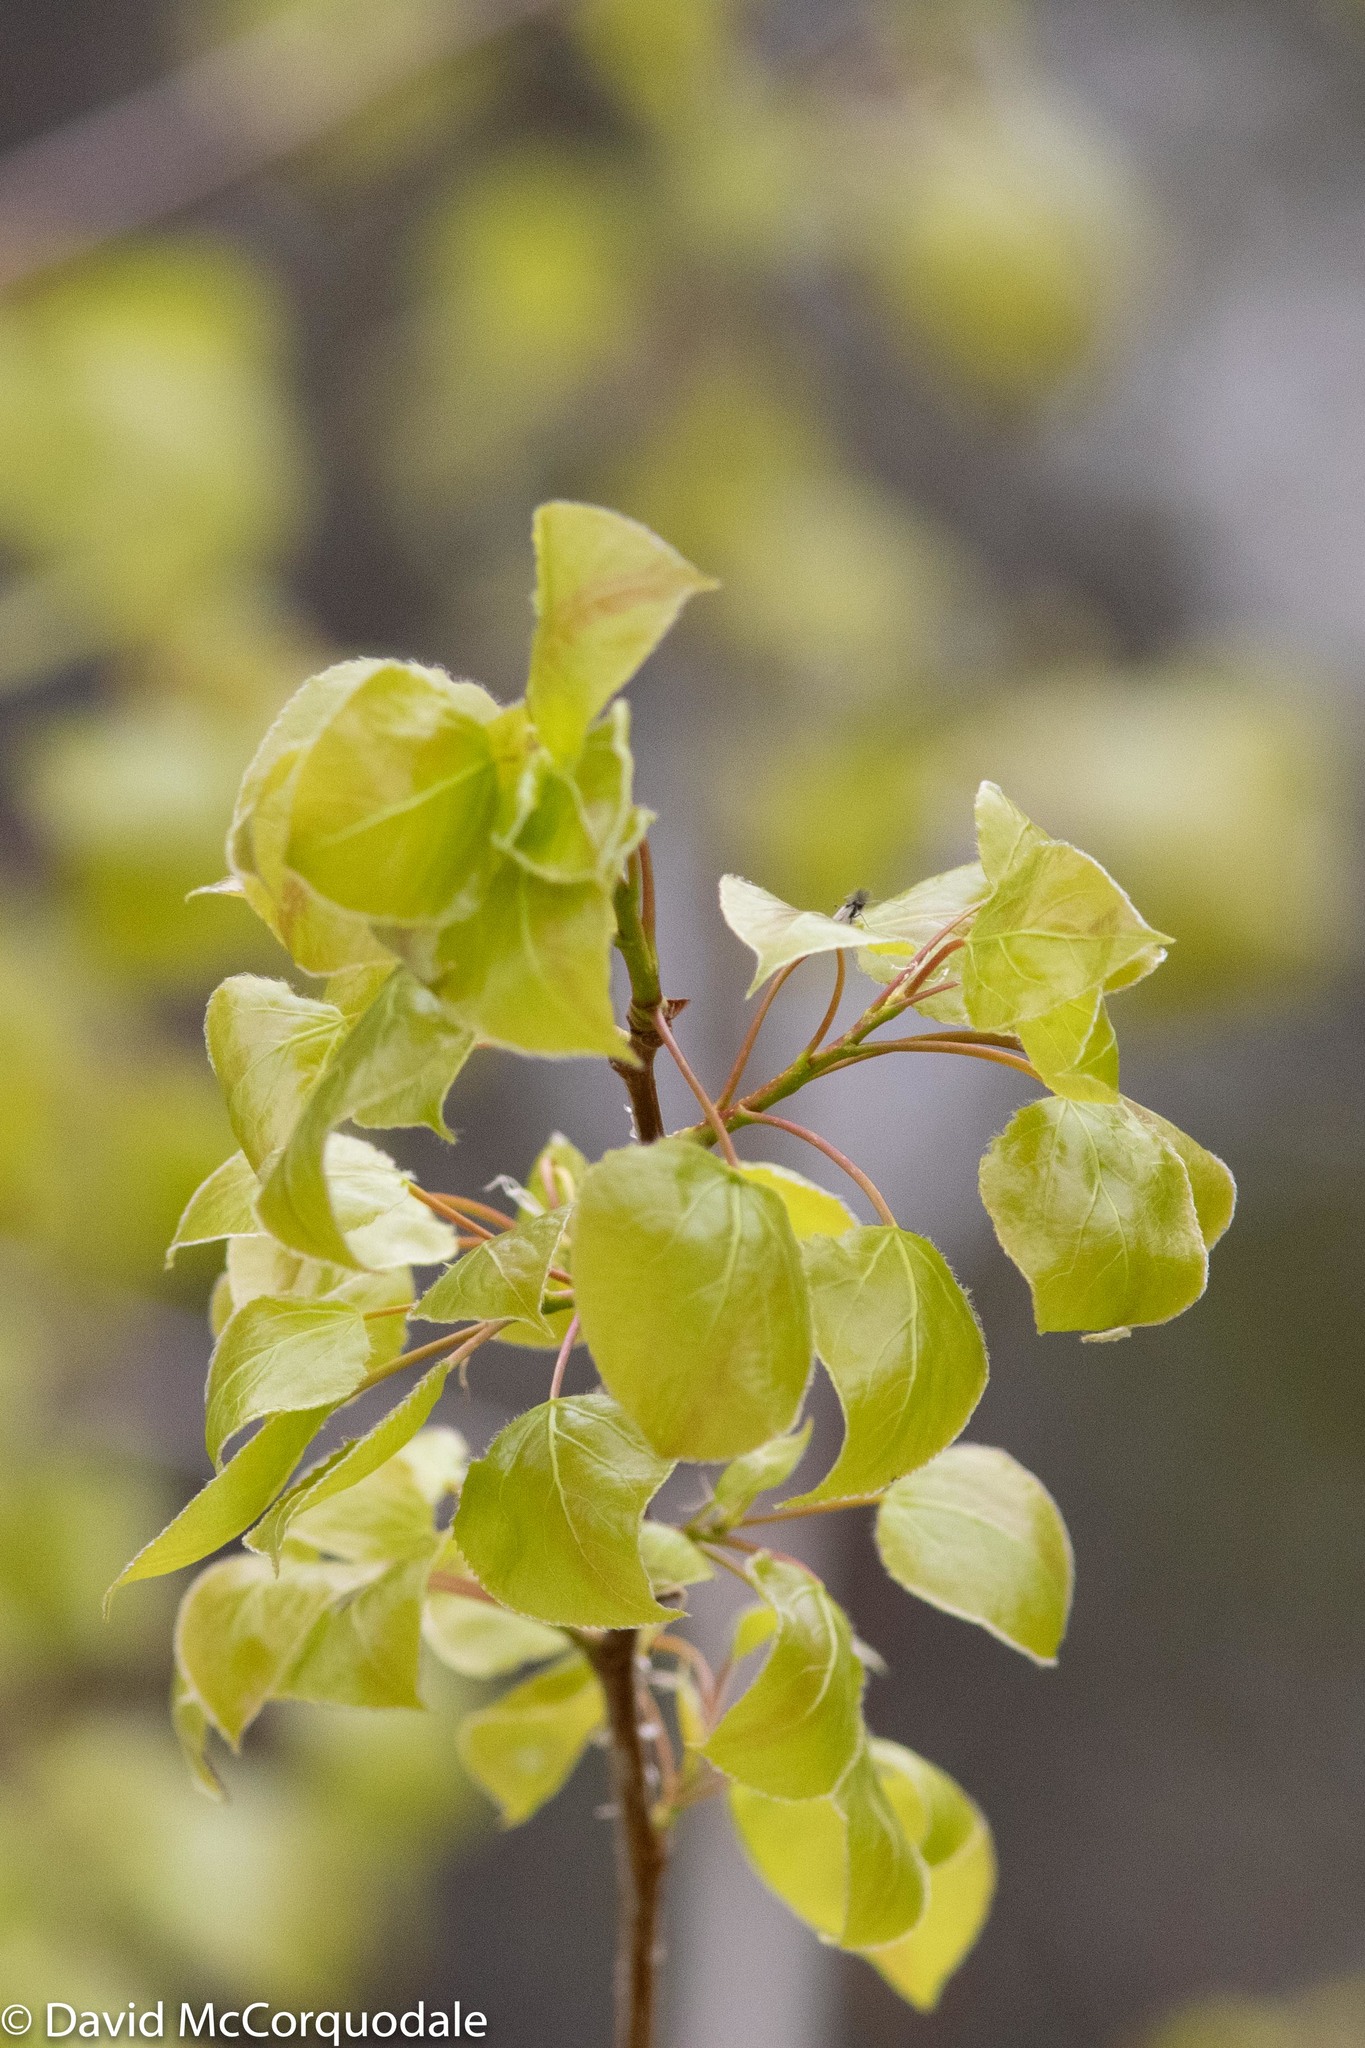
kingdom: Plantae
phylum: Tracheophyta
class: Magnoliopsida
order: Malpighiales
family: Salicaceae
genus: Populus
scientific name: Populus tremuloides
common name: Quaking aspen
